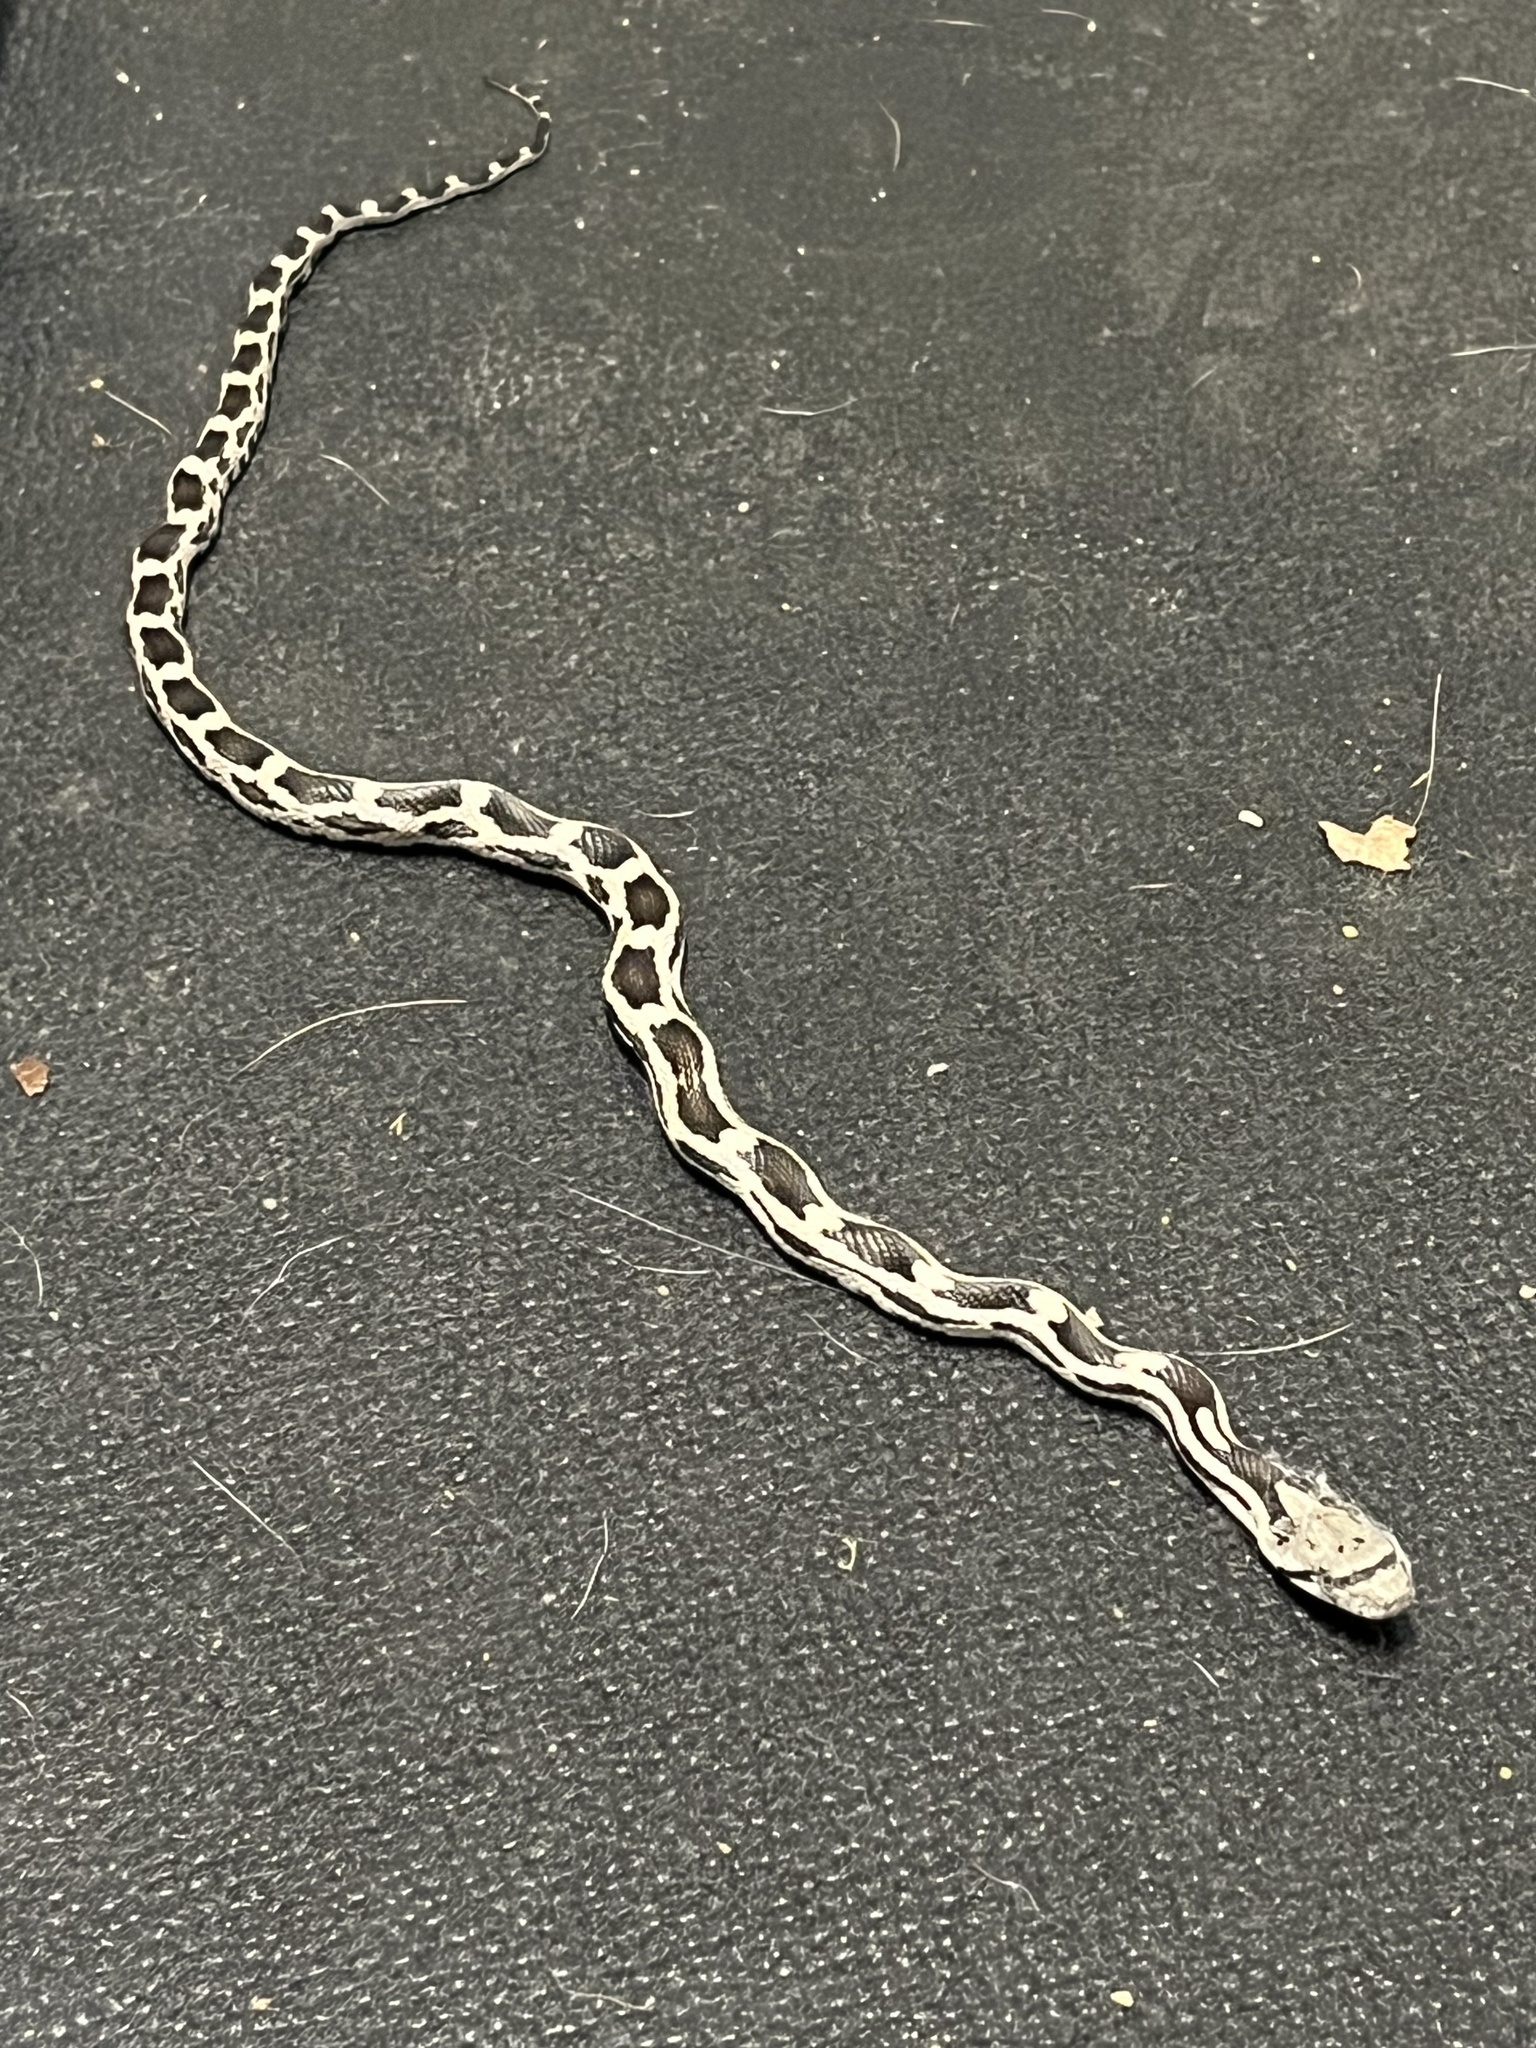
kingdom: Animalia
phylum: Chordata
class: Squamata
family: Colubridae
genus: Pantherophis
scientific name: Pantherophis spiloides
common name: Gray rat snake
